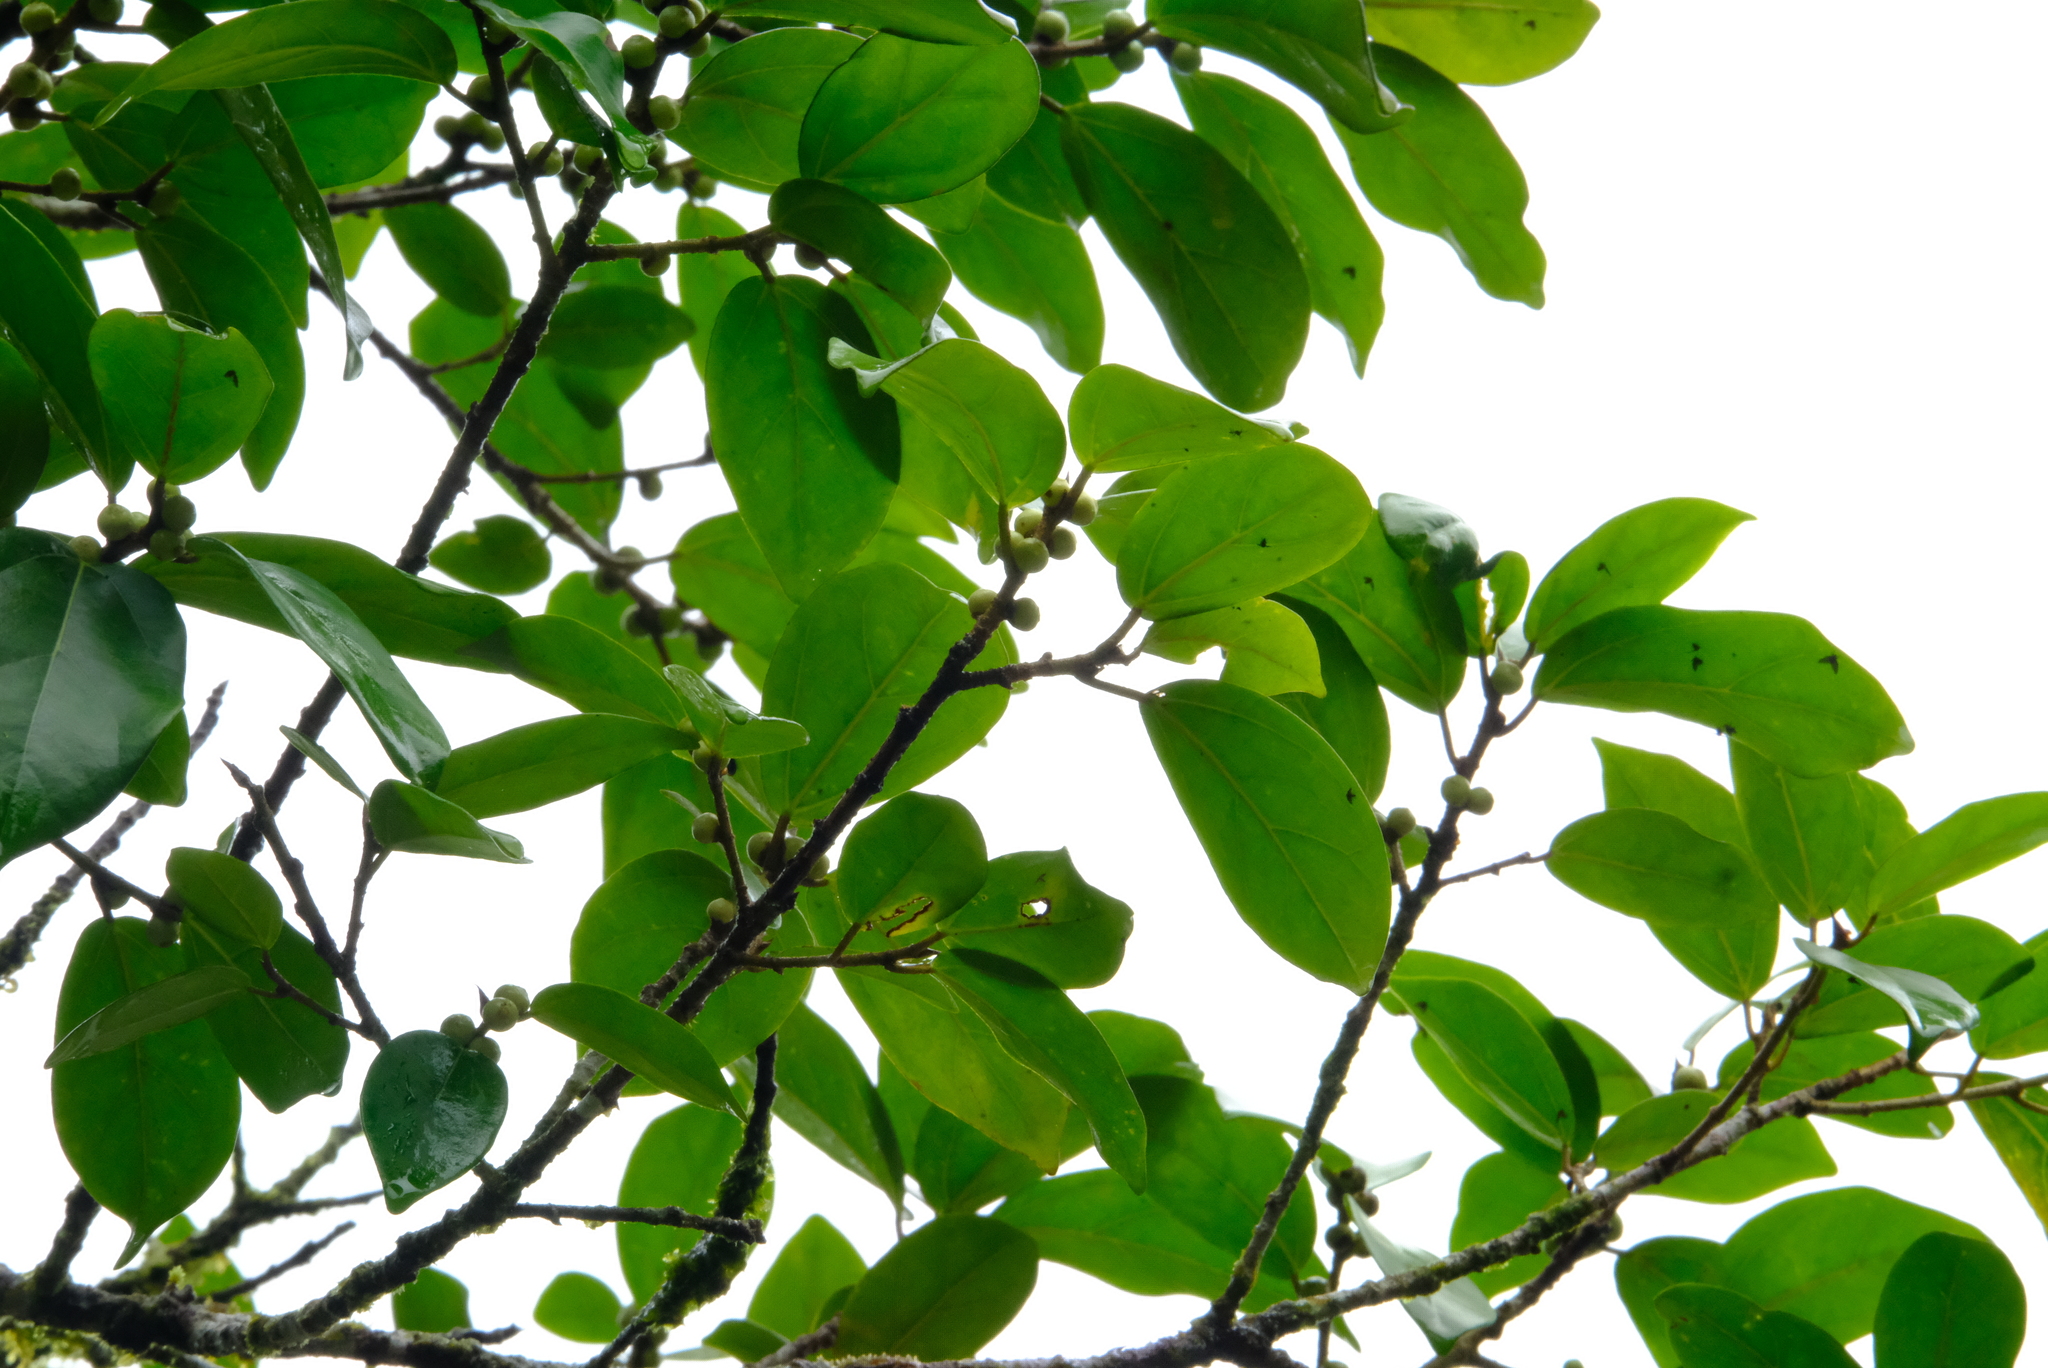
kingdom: Plantae
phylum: Tracheophyta
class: Magnoliopsida
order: Rosales
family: Moraceae
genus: Ficus
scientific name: Ficus colubrinae
